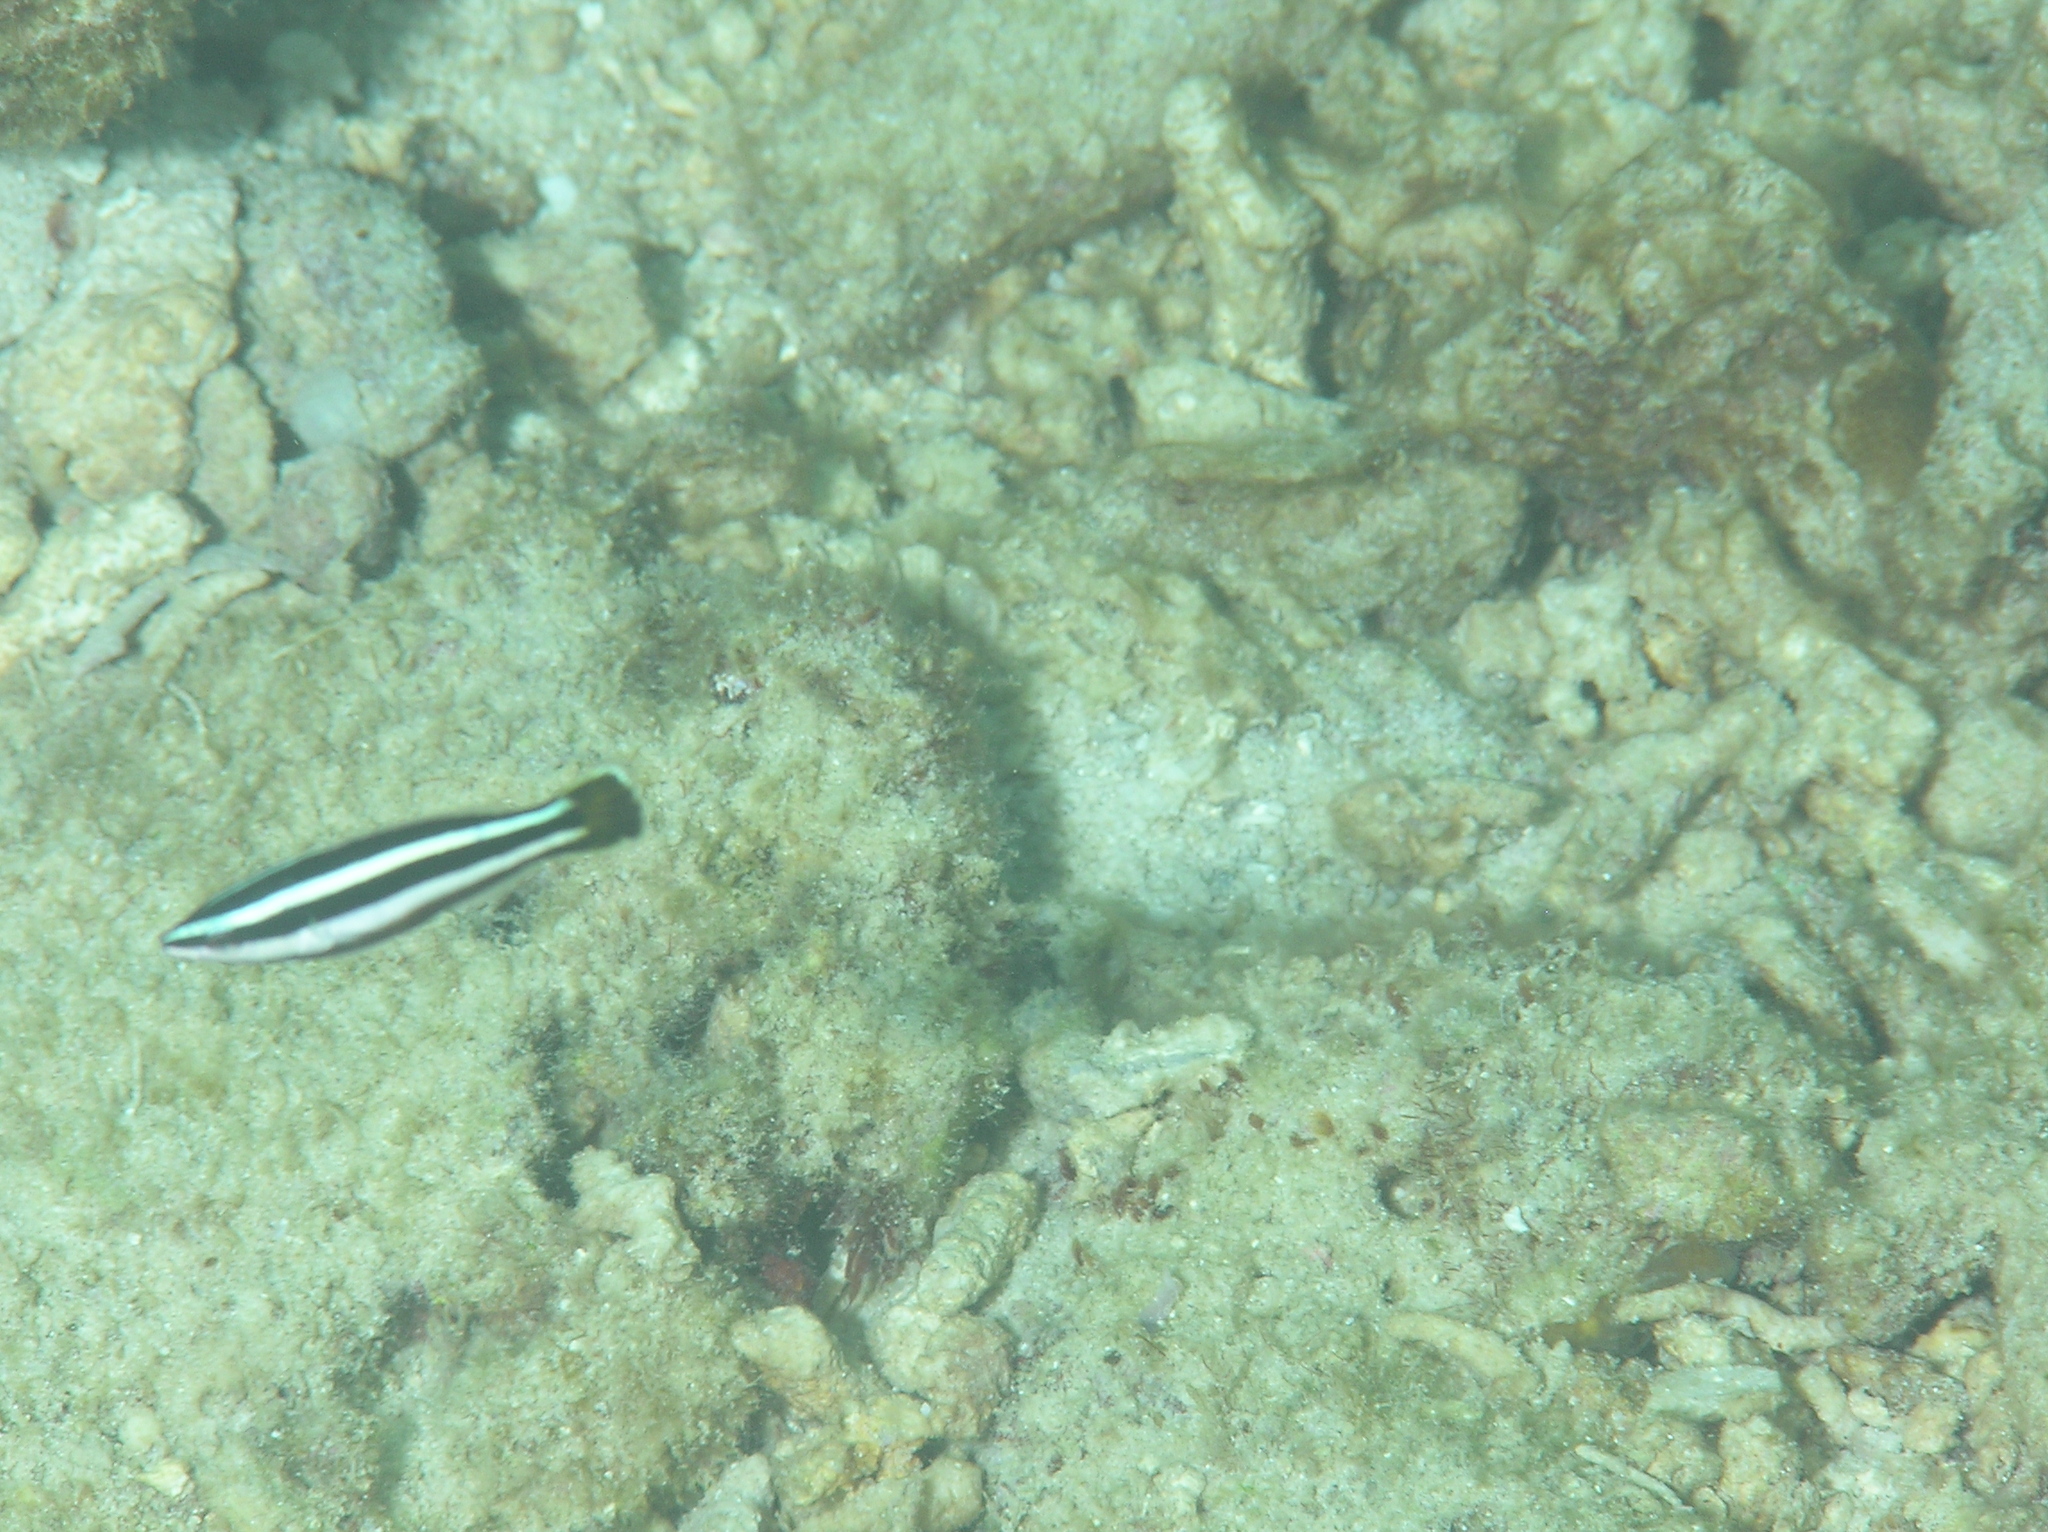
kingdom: Animalia
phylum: Chordata
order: Perciformes
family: Labridae
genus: Labropsis
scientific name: Labropsis manabei
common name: Northern tubelip
